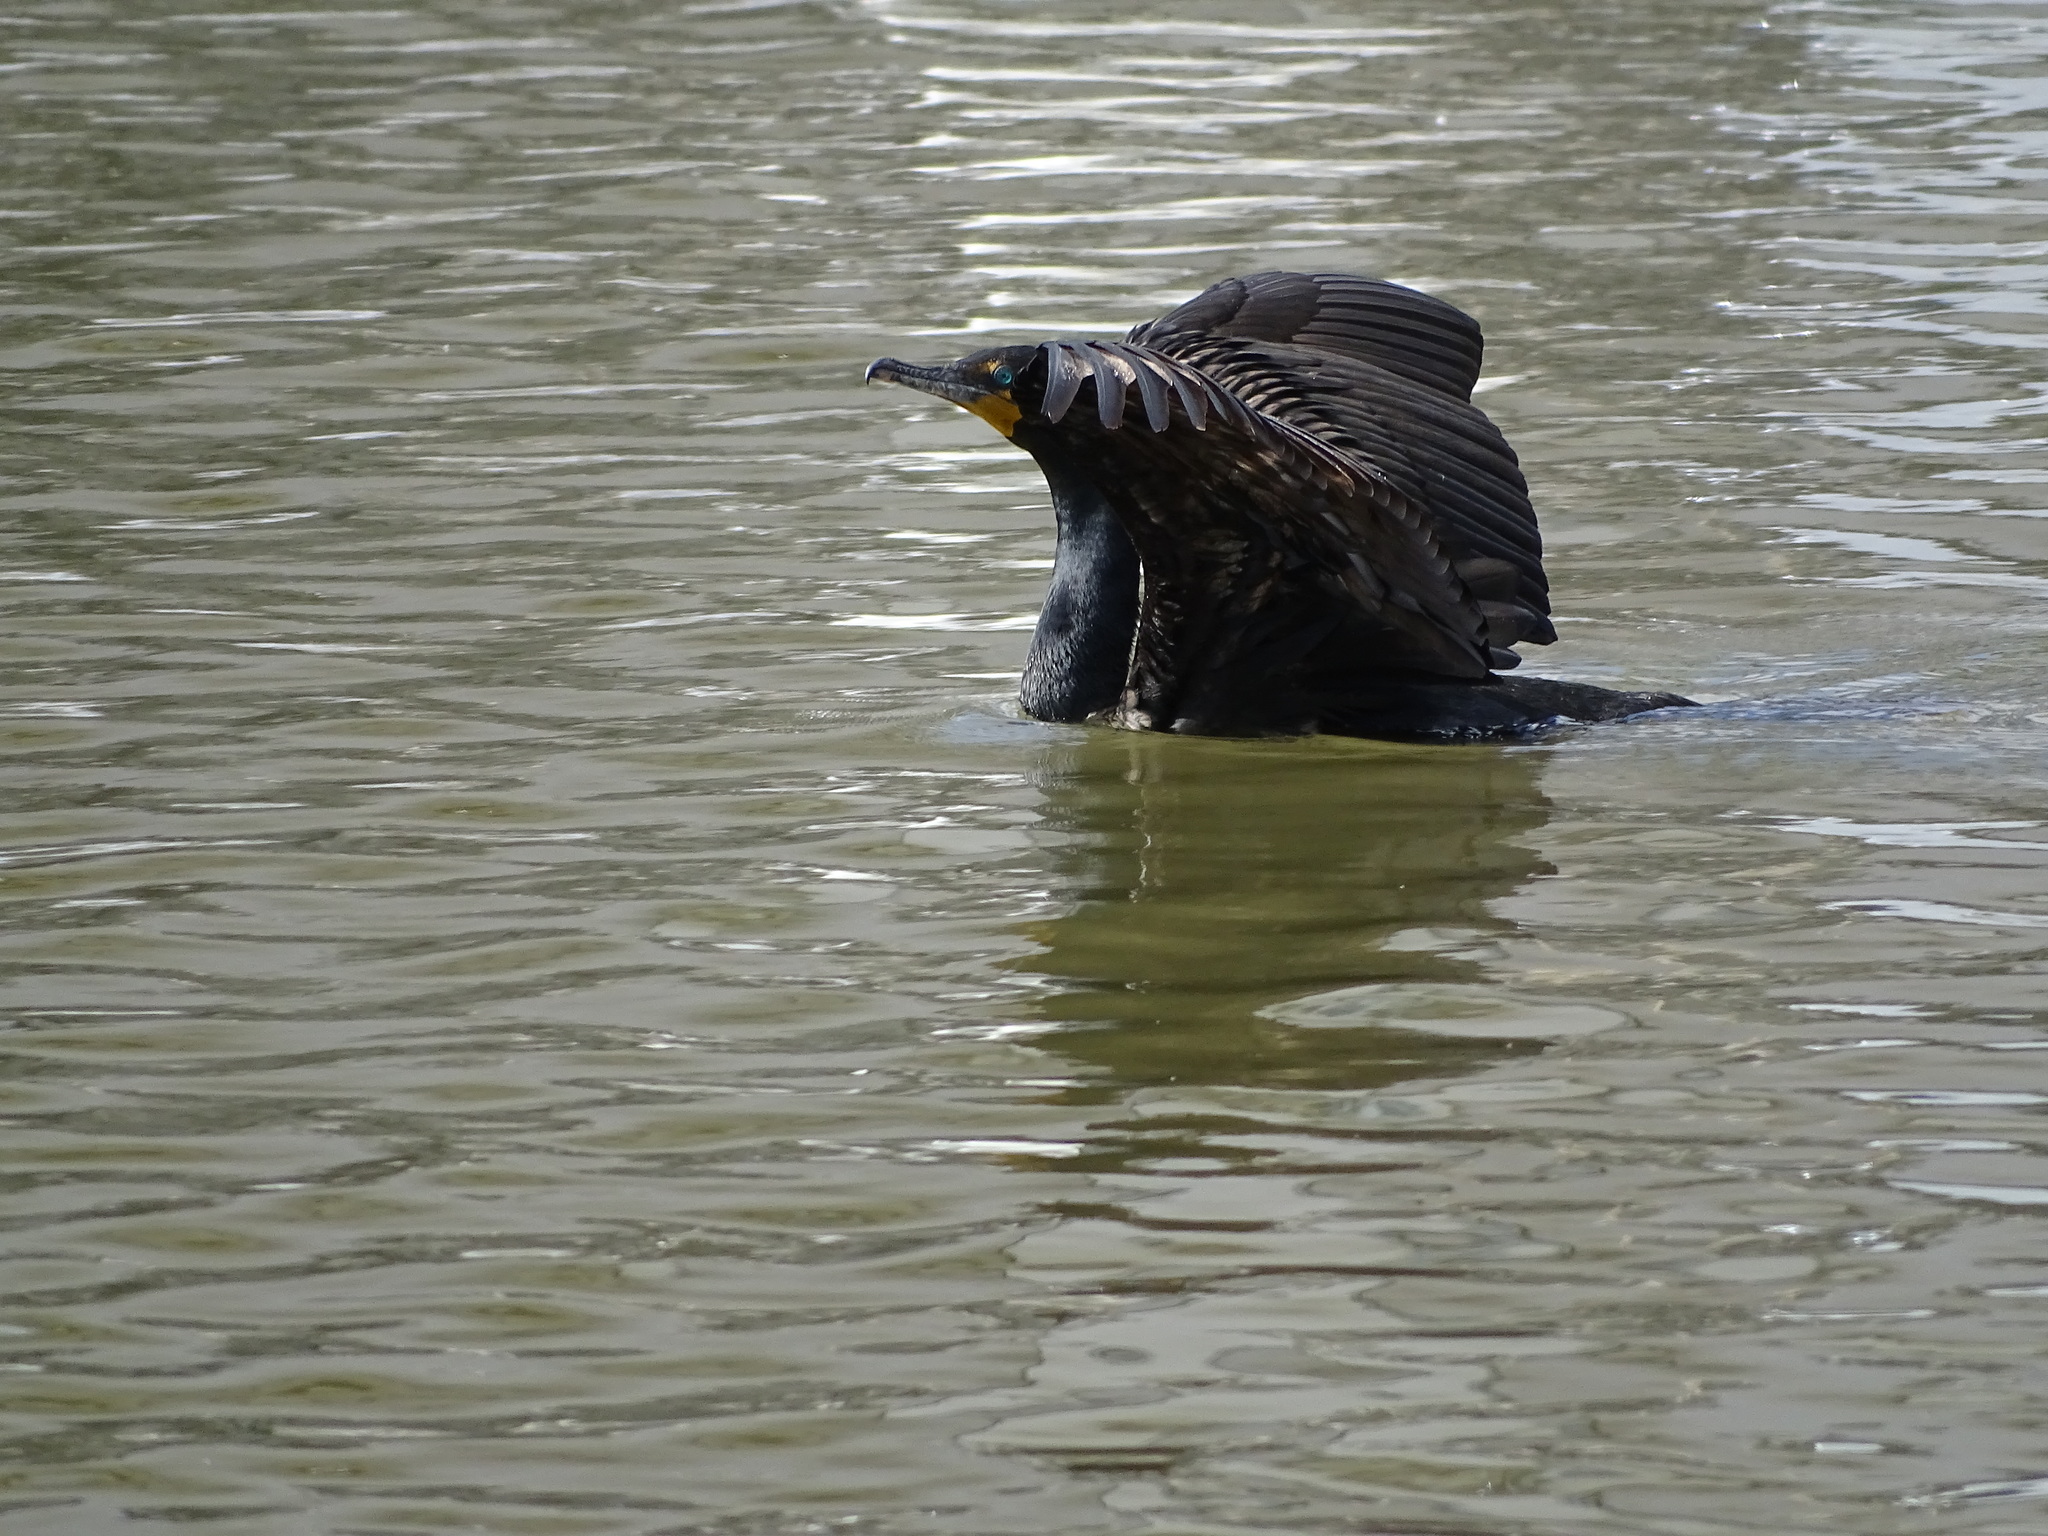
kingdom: Animalia
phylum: Chordata
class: Aves
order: Suliformes
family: Phalacrocoracidae
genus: Phalacrocorax
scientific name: Phalacrocorax auritus
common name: Double-crested cormorant
